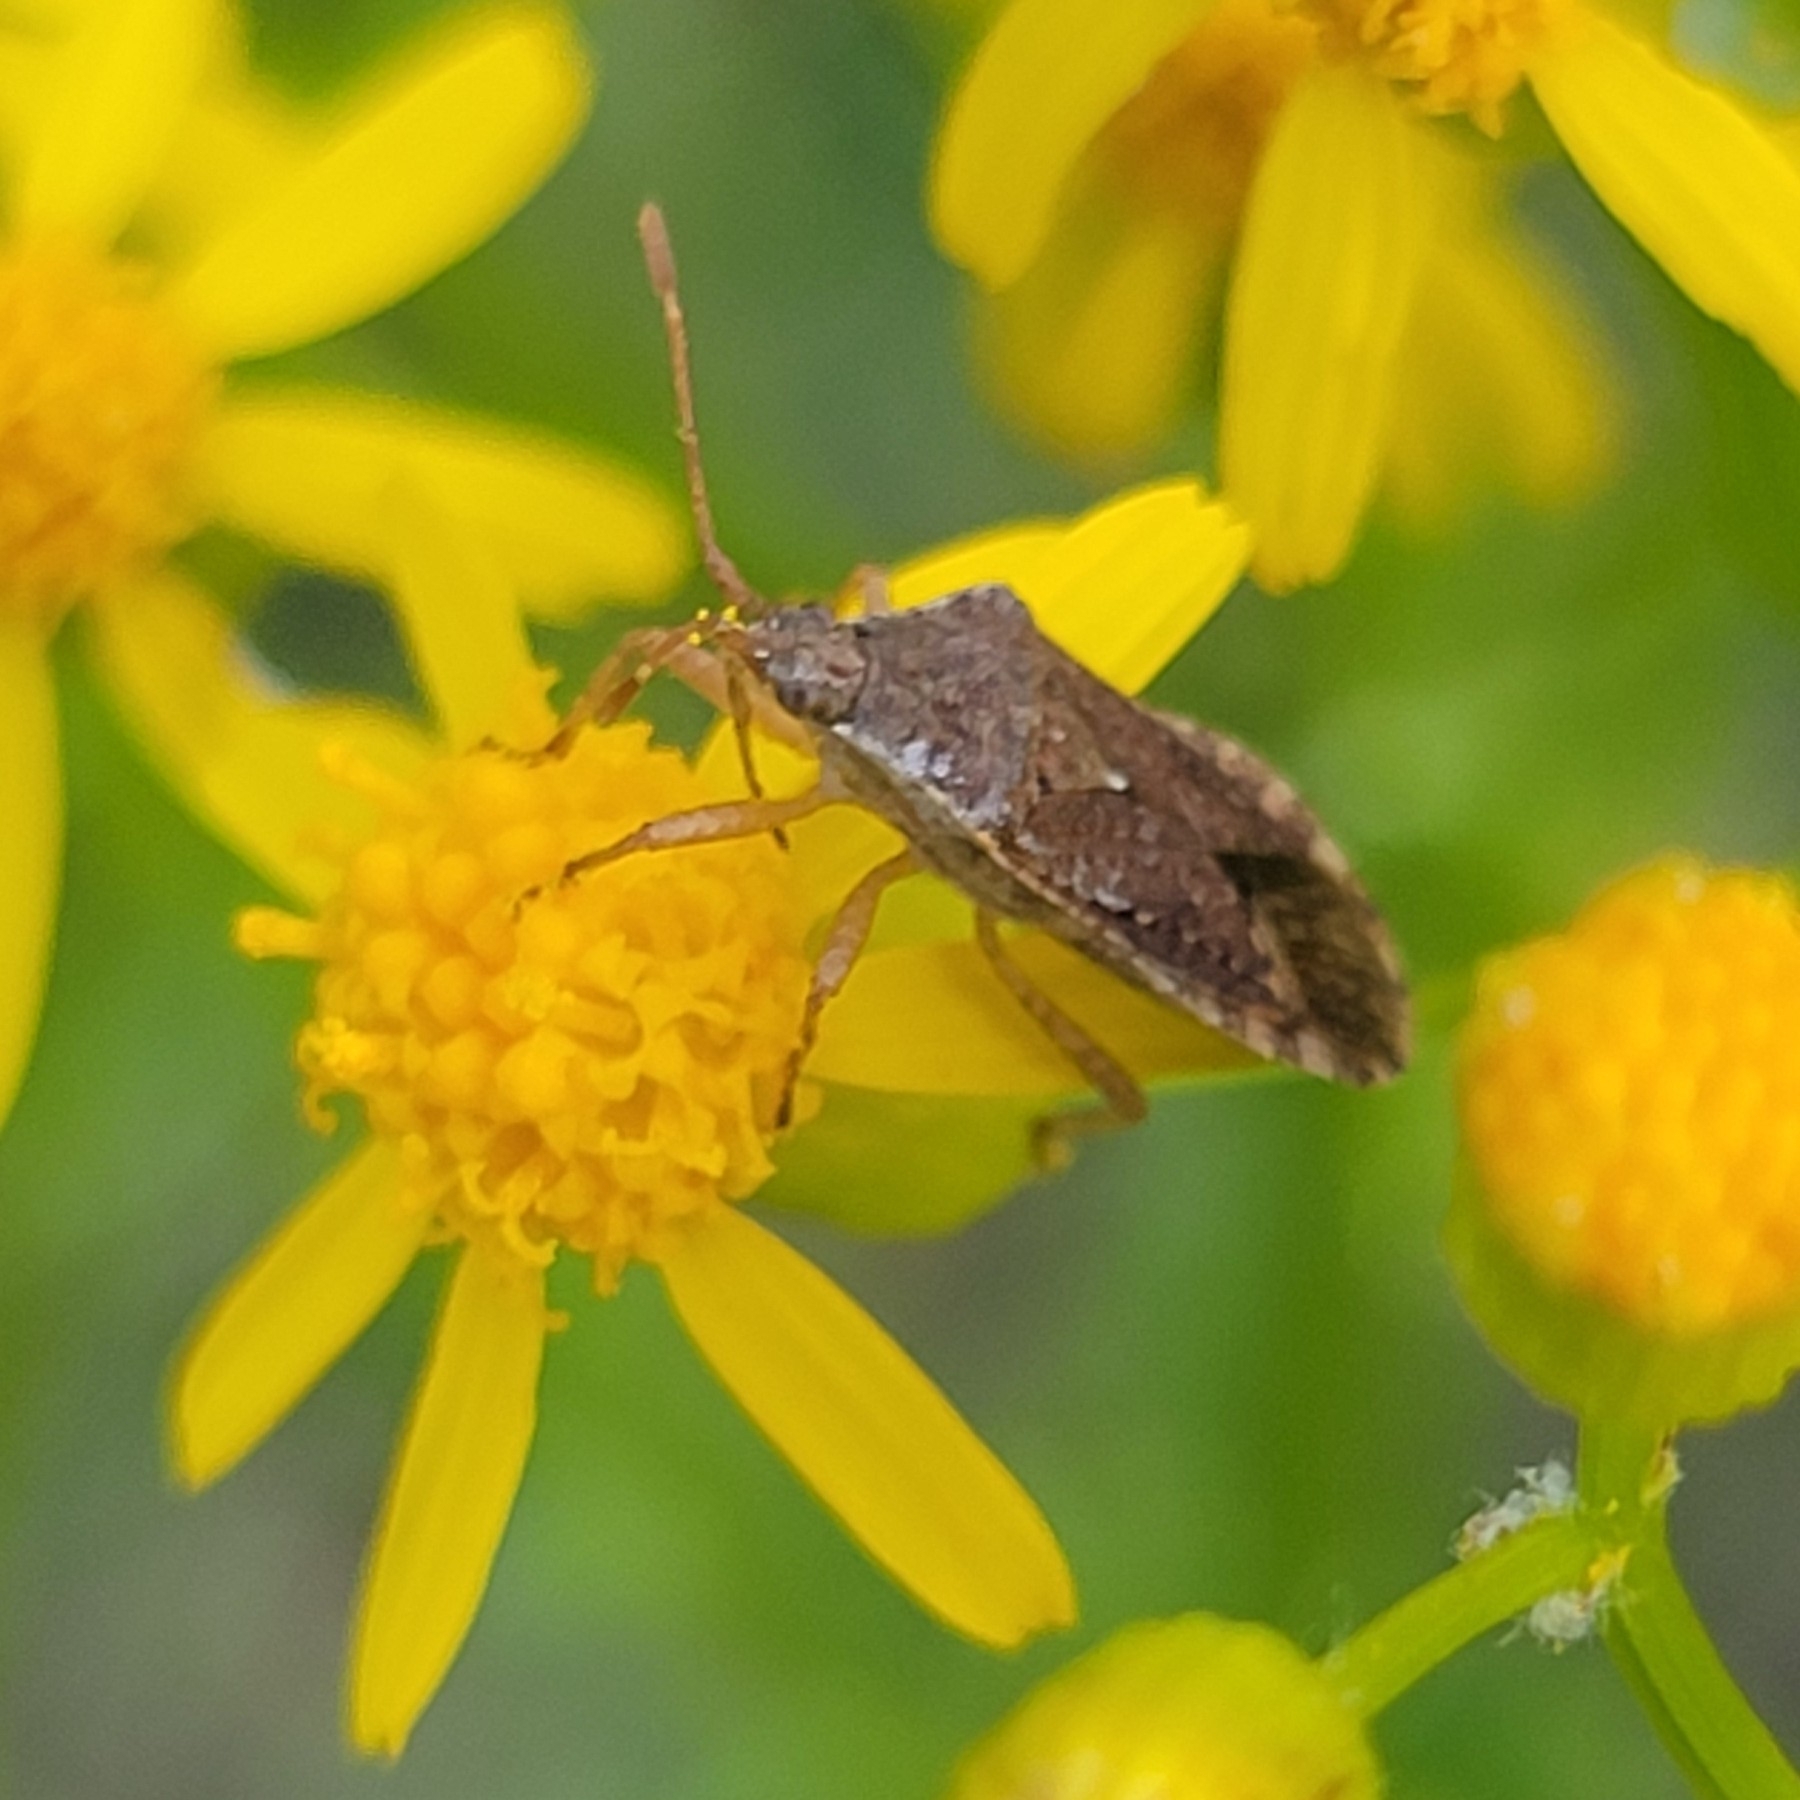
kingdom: Animalia
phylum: Arthropoda
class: Insecta
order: Hemiptera
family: Coreidae
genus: Althos
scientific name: Althos obscurator
